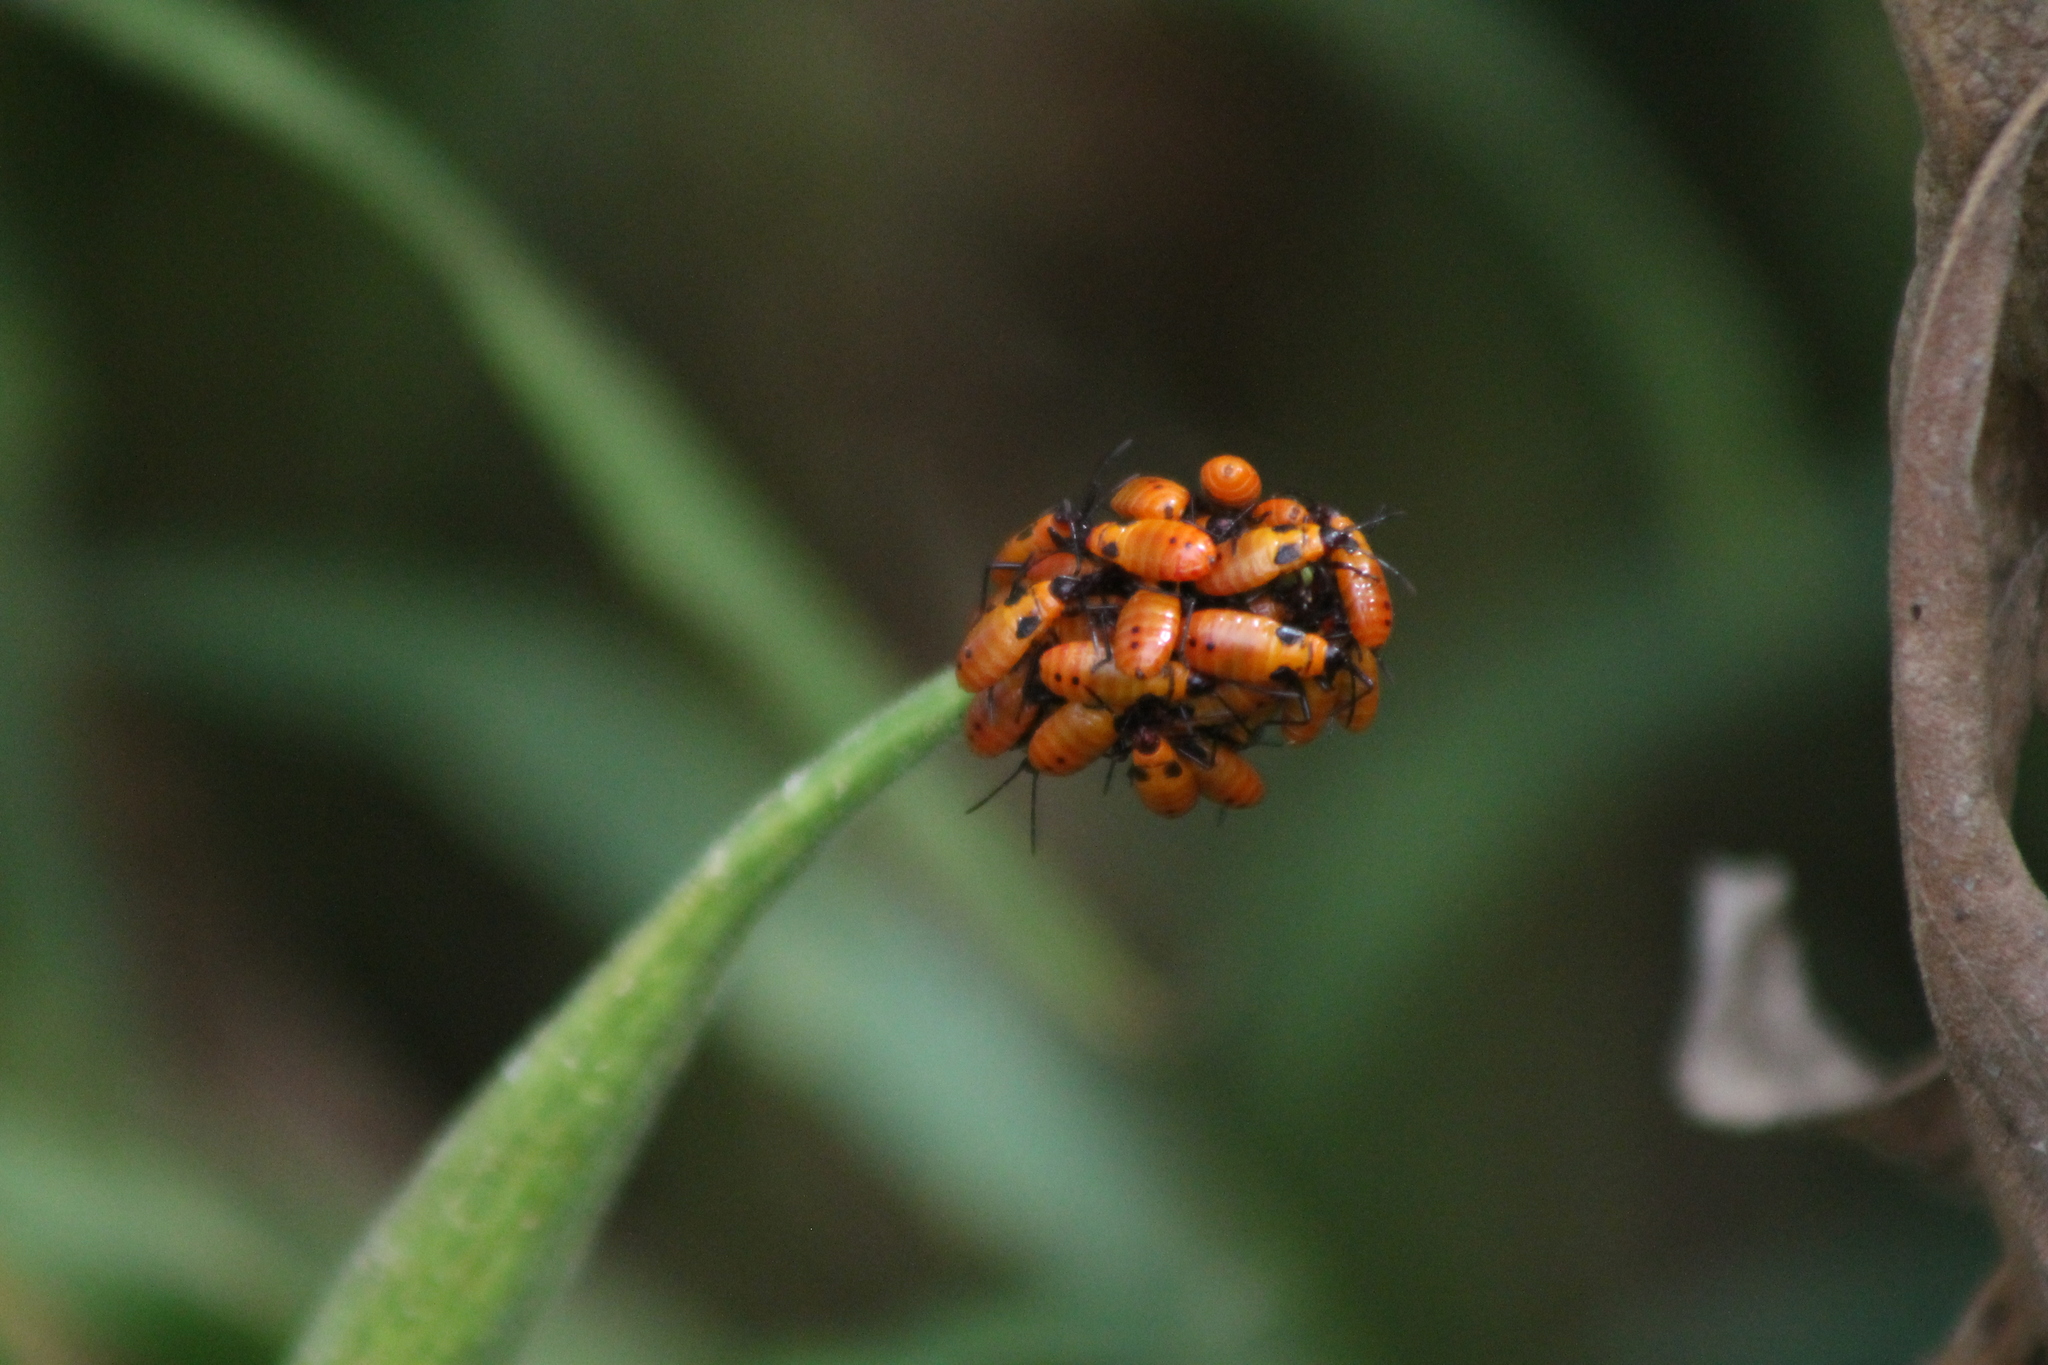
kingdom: Animalia
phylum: Arthropoda
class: Insecta
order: Hemiptera
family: Lygaeidae
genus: Oncopeltus
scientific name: Oncopeltus fasciatus
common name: Large milkweed bug
